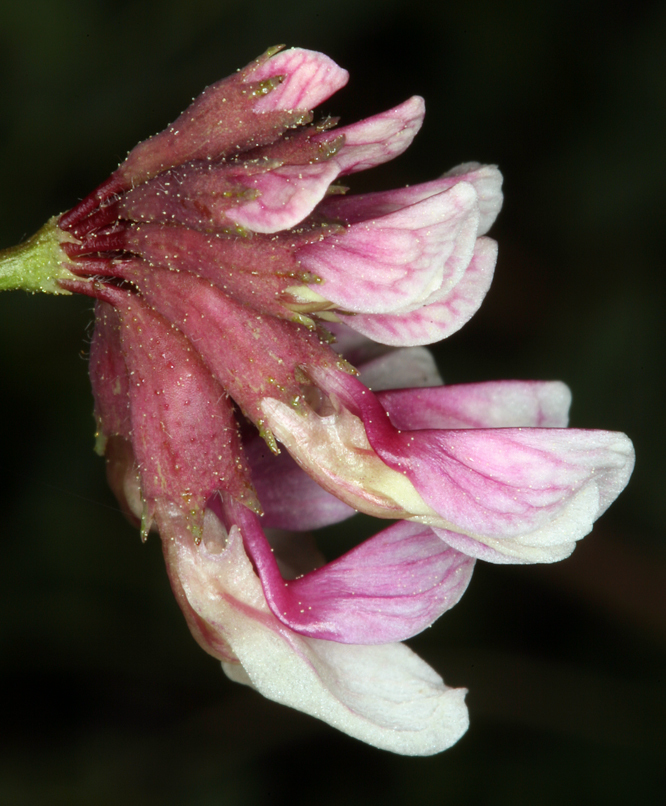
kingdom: Plantae
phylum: Tracheophyta
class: Magnoliopsida
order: Fabales
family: Fabaceae
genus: Hosackia
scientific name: Hosackia stipularis
